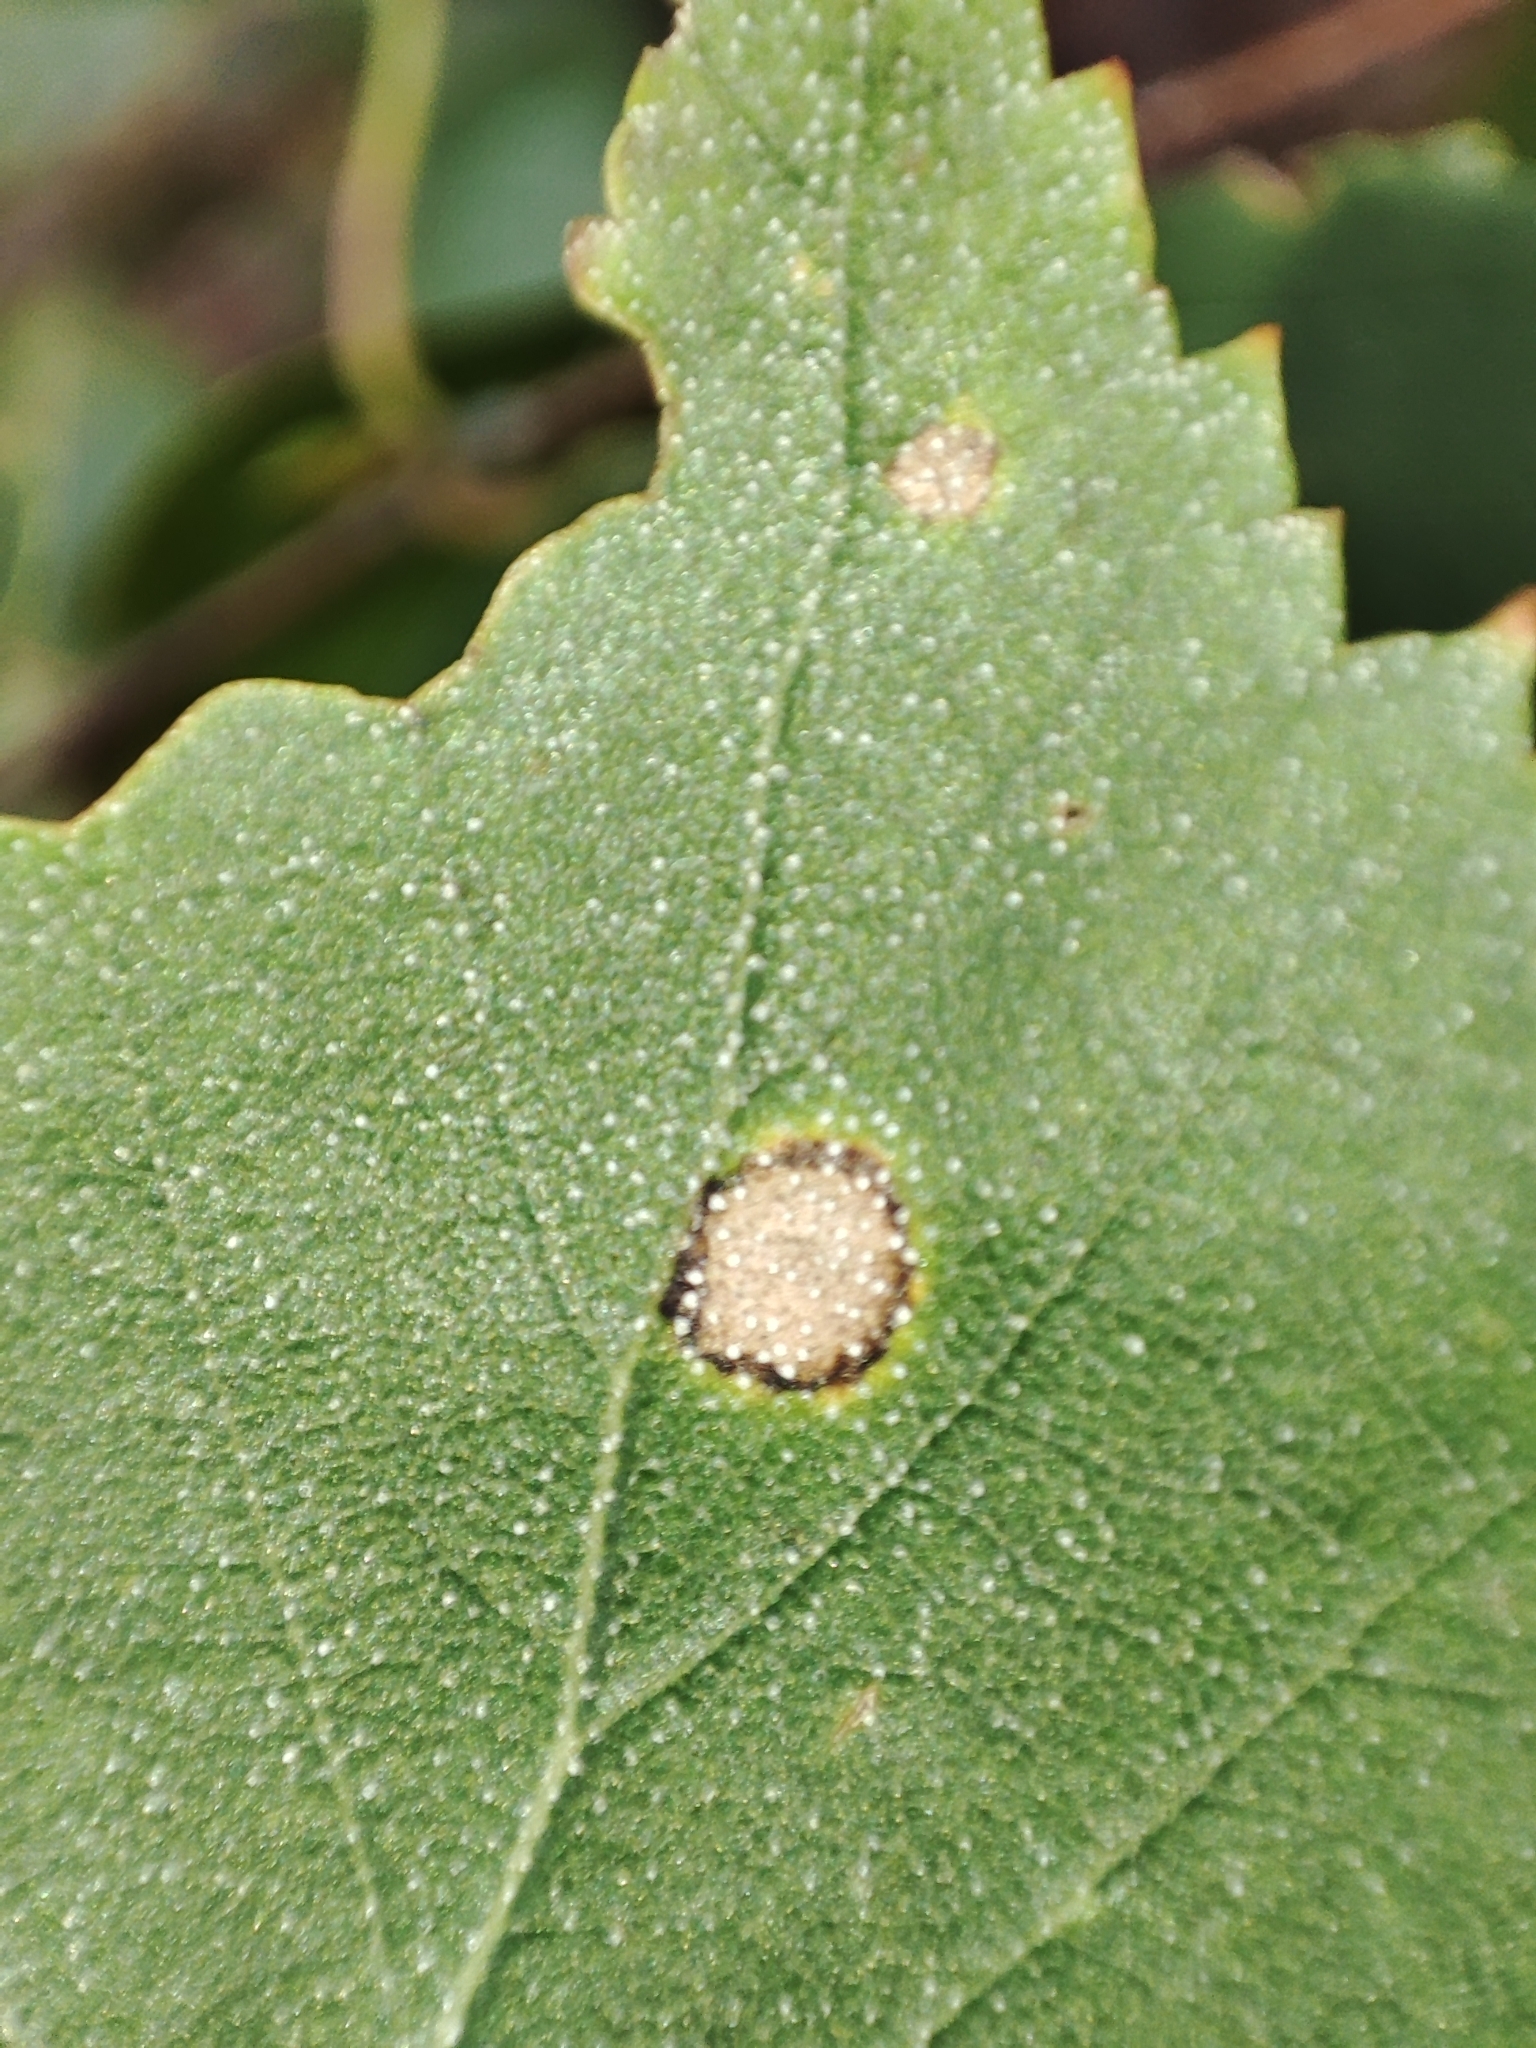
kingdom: Plantae
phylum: Tracheophyta
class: Magnoliopsida
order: Fagales
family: Betulaceae
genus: Betula
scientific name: Betula pendula
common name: Silver birch
